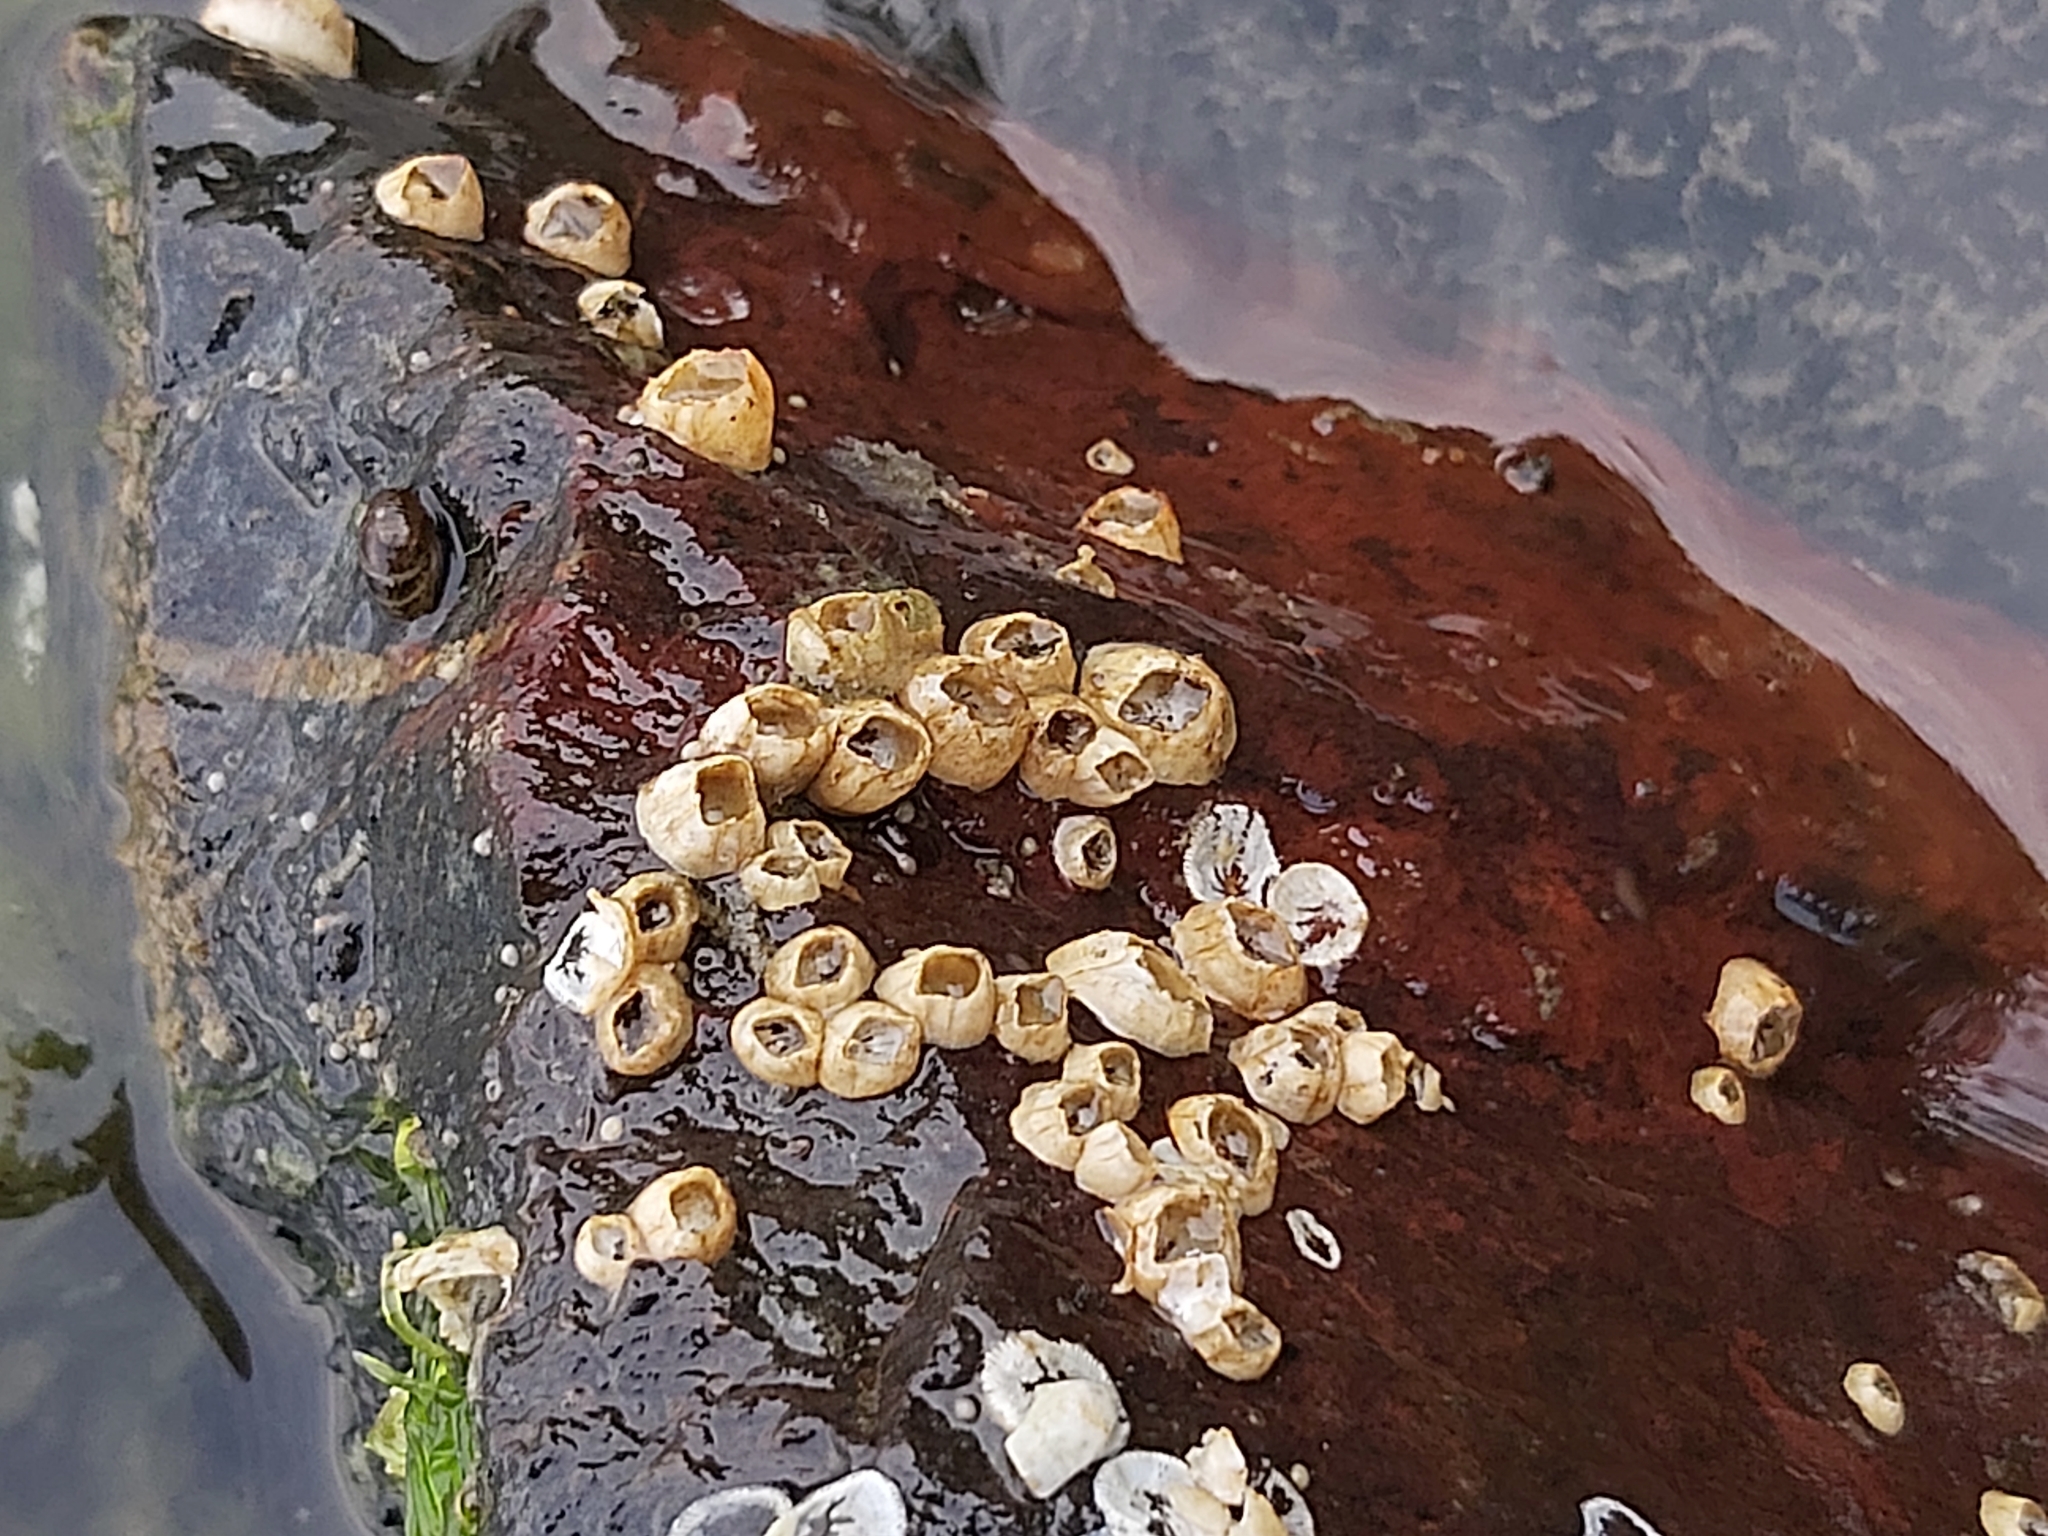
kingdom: Animalia
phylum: Arthropoda
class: Maxillopoda
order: Sessilia
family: Balanidae
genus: Amphibalanus
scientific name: Amphibalanus improvisus
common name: Bay barnacle
